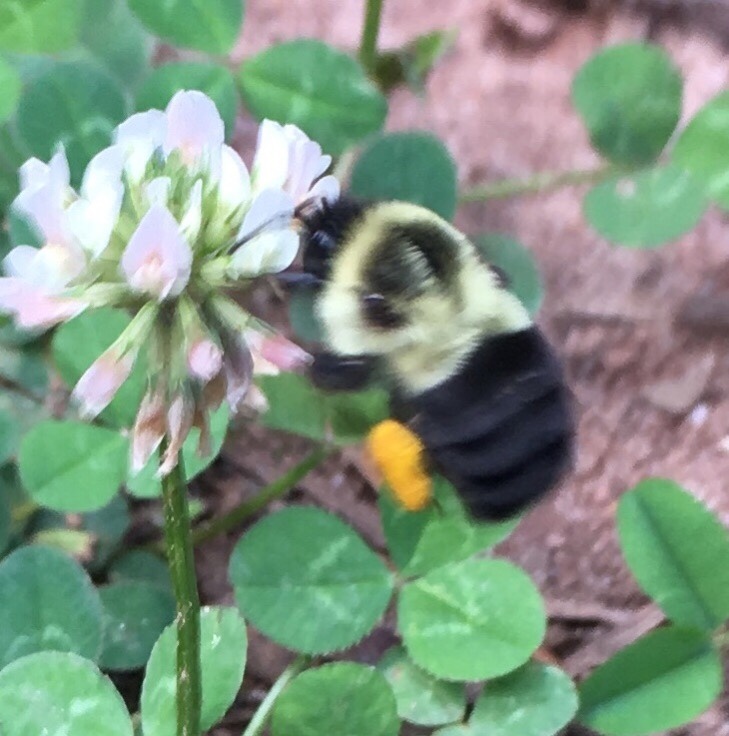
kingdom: Animalia
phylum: Arthropoda
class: Insecta
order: Hymenoptera
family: Apidae
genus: Bombus
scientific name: Bombus impatiens
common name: Common eastern bumble bee
